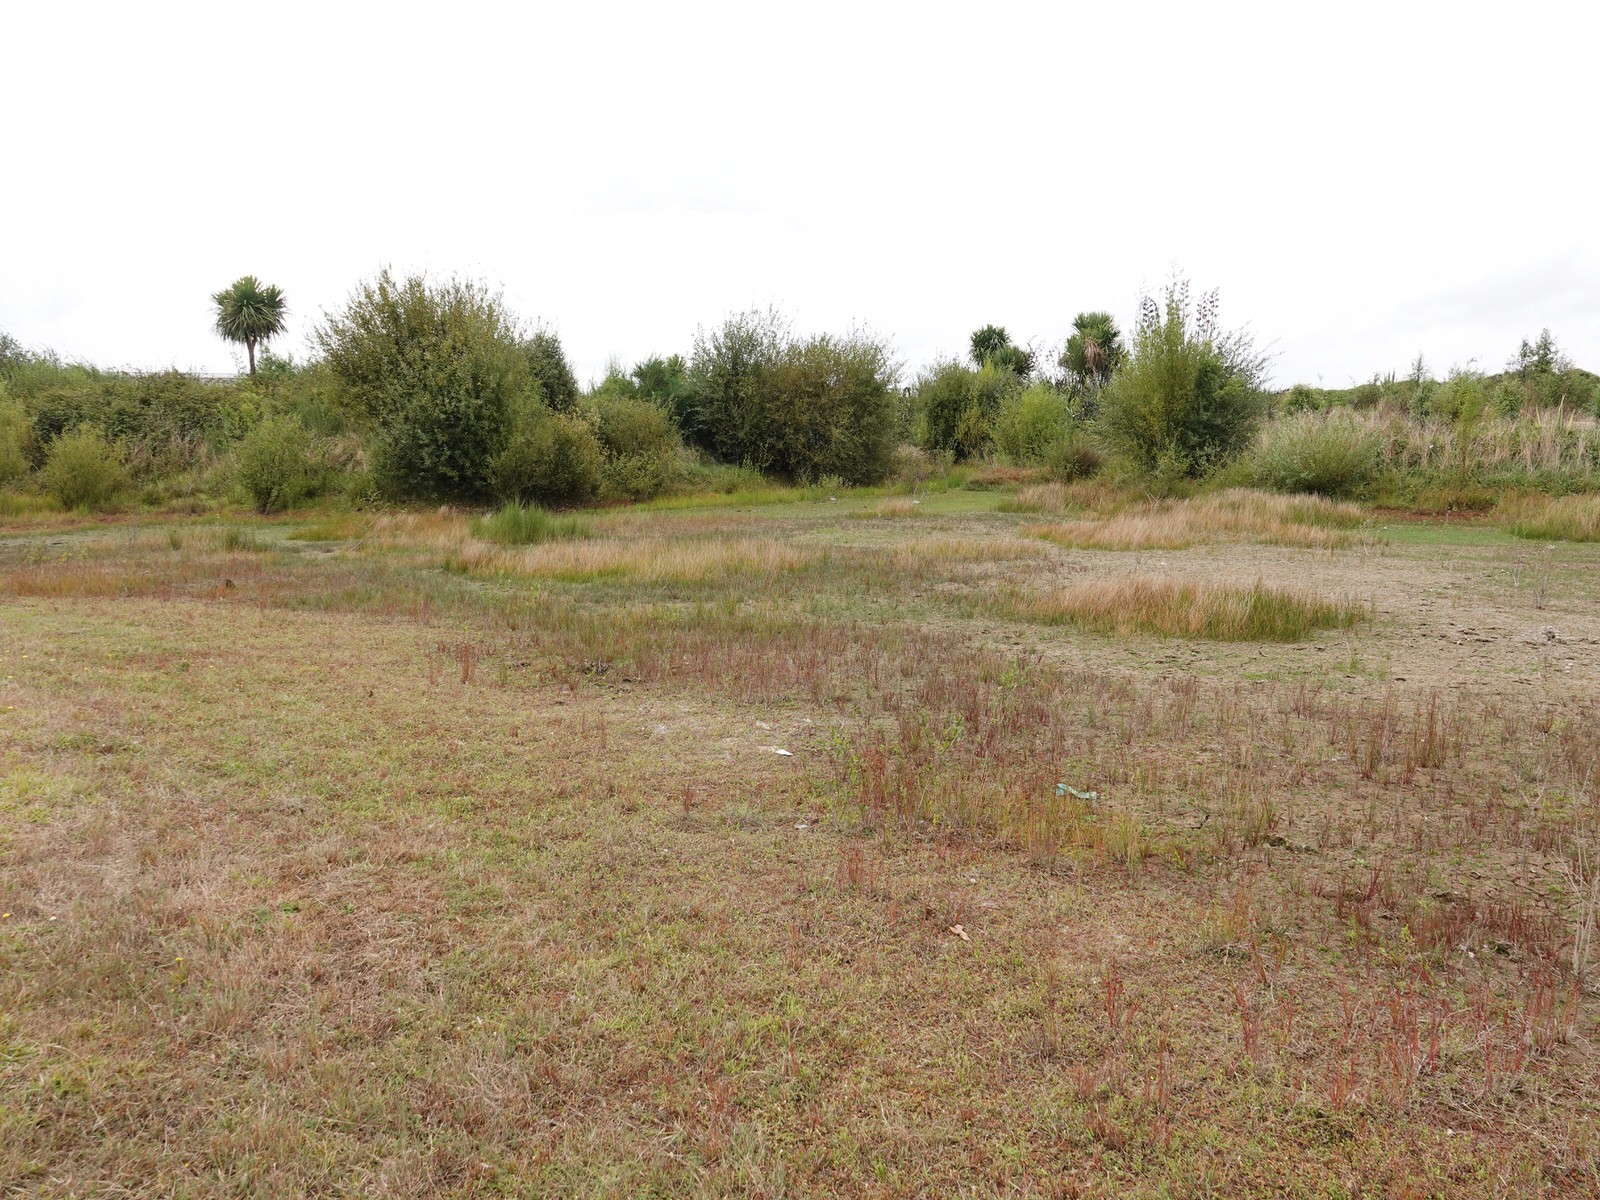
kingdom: Animalia
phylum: Arthropoda
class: Insecta
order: Coleoptera
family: Coccinellidae
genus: Harmonia
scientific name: Harmonia axyridis
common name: Harlequin ladybird
